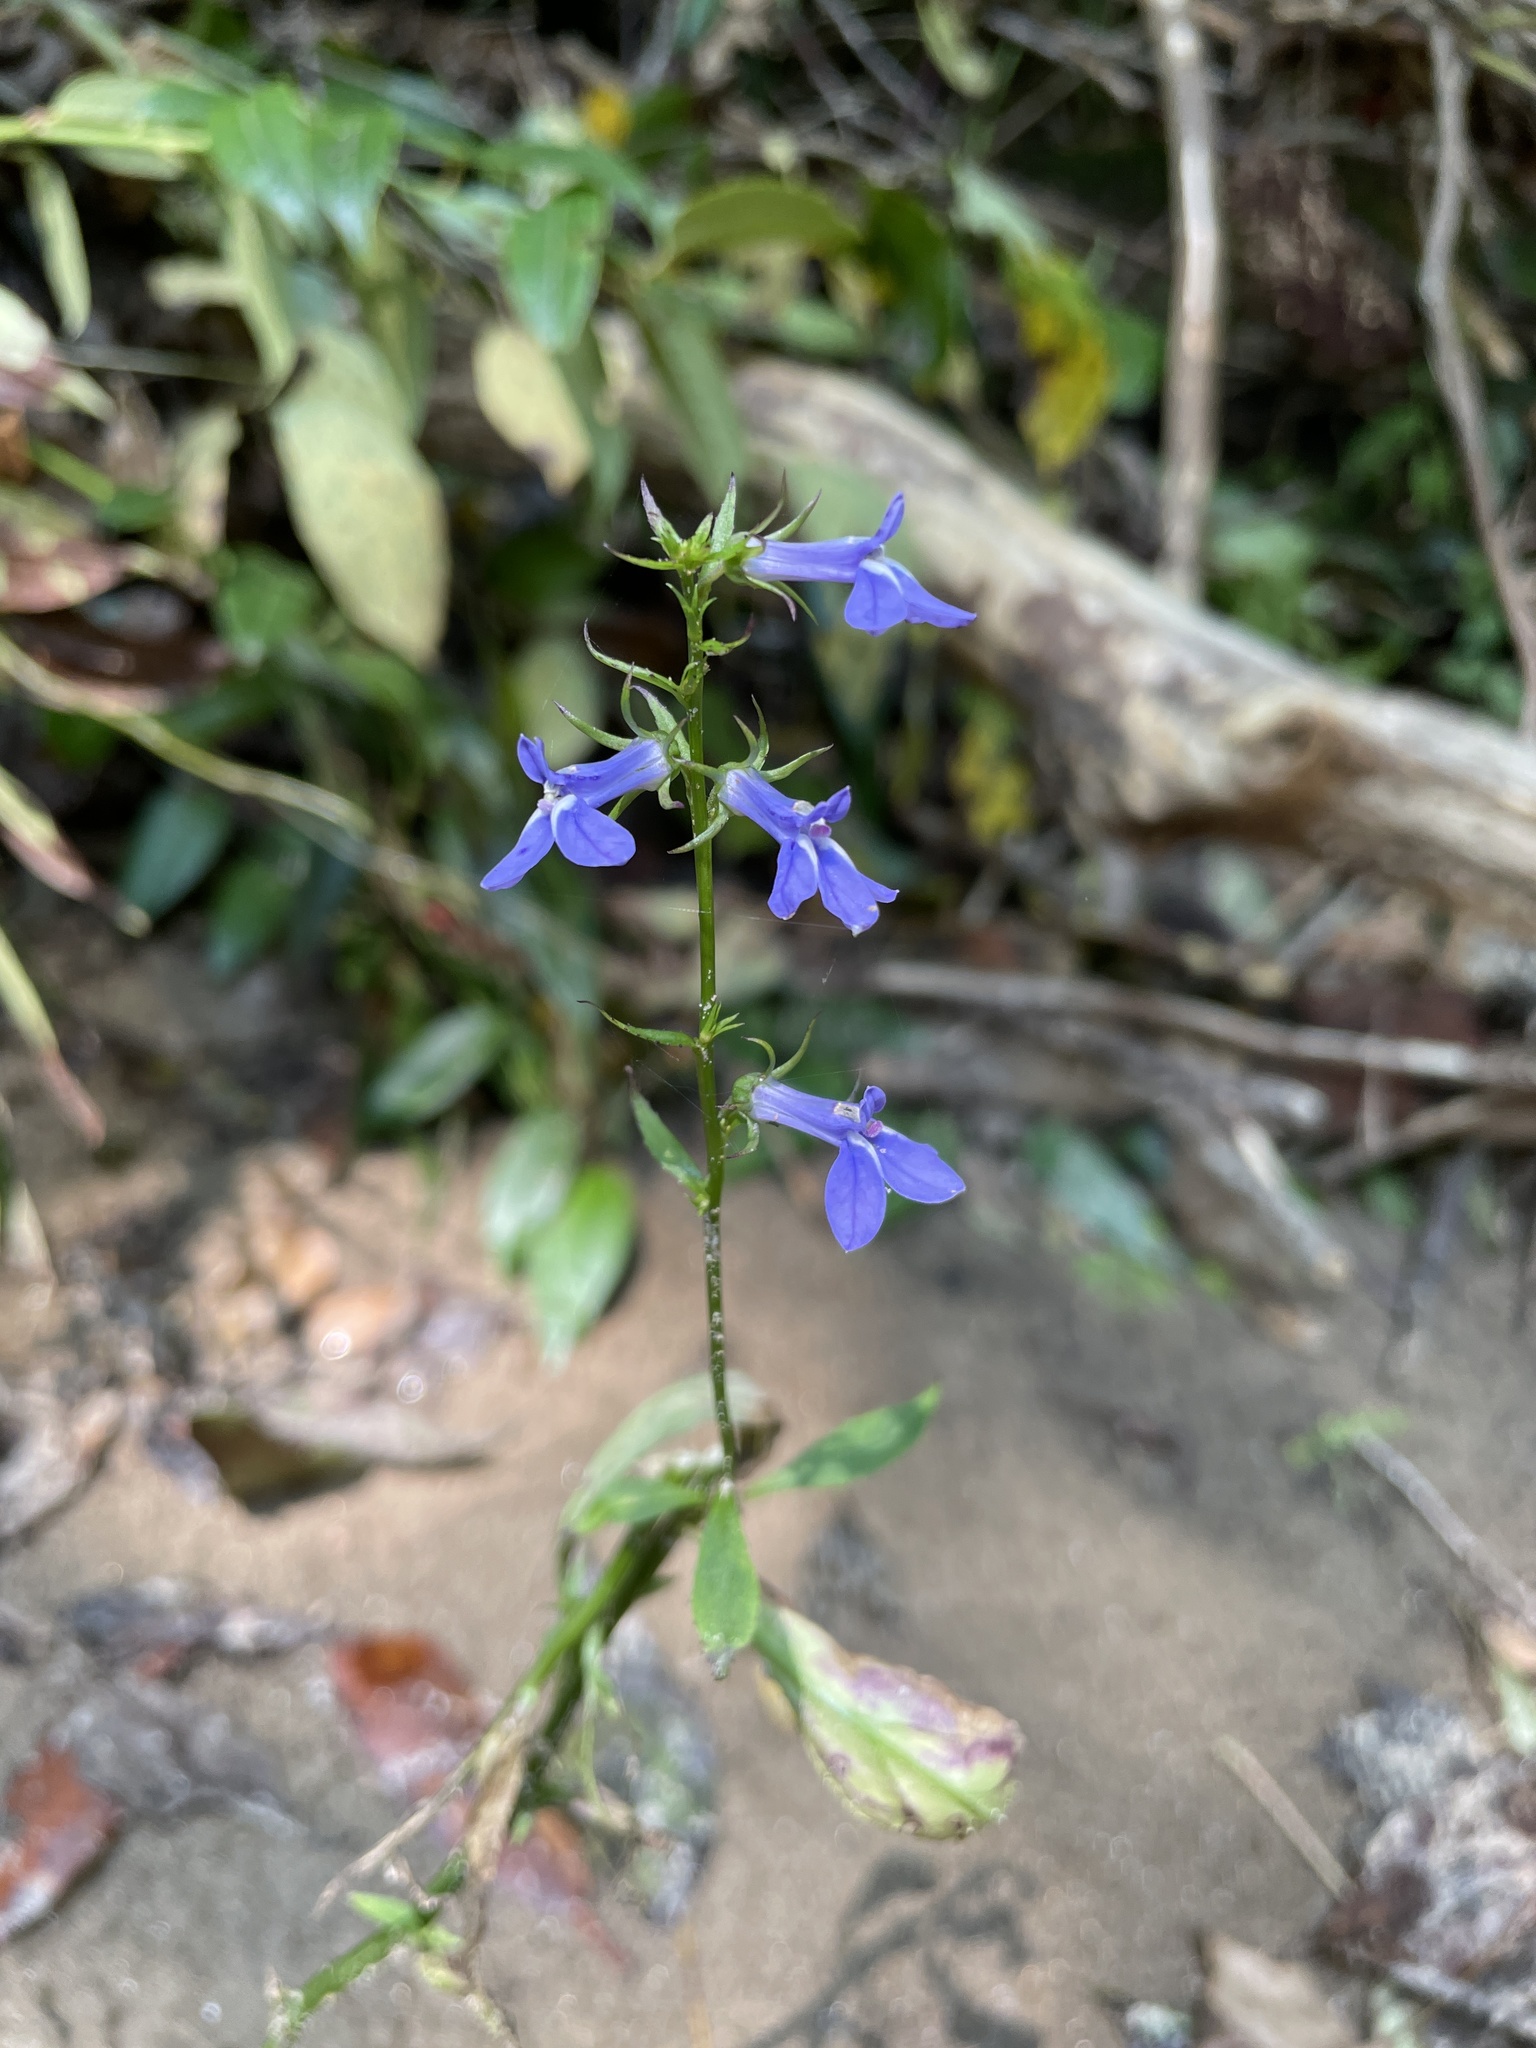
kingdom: Plantae
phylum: Tracheophyta
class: Magnoliopsida
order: Asterales
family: Campanulaceae
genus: Lobelia
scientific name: Lobelia amoena
